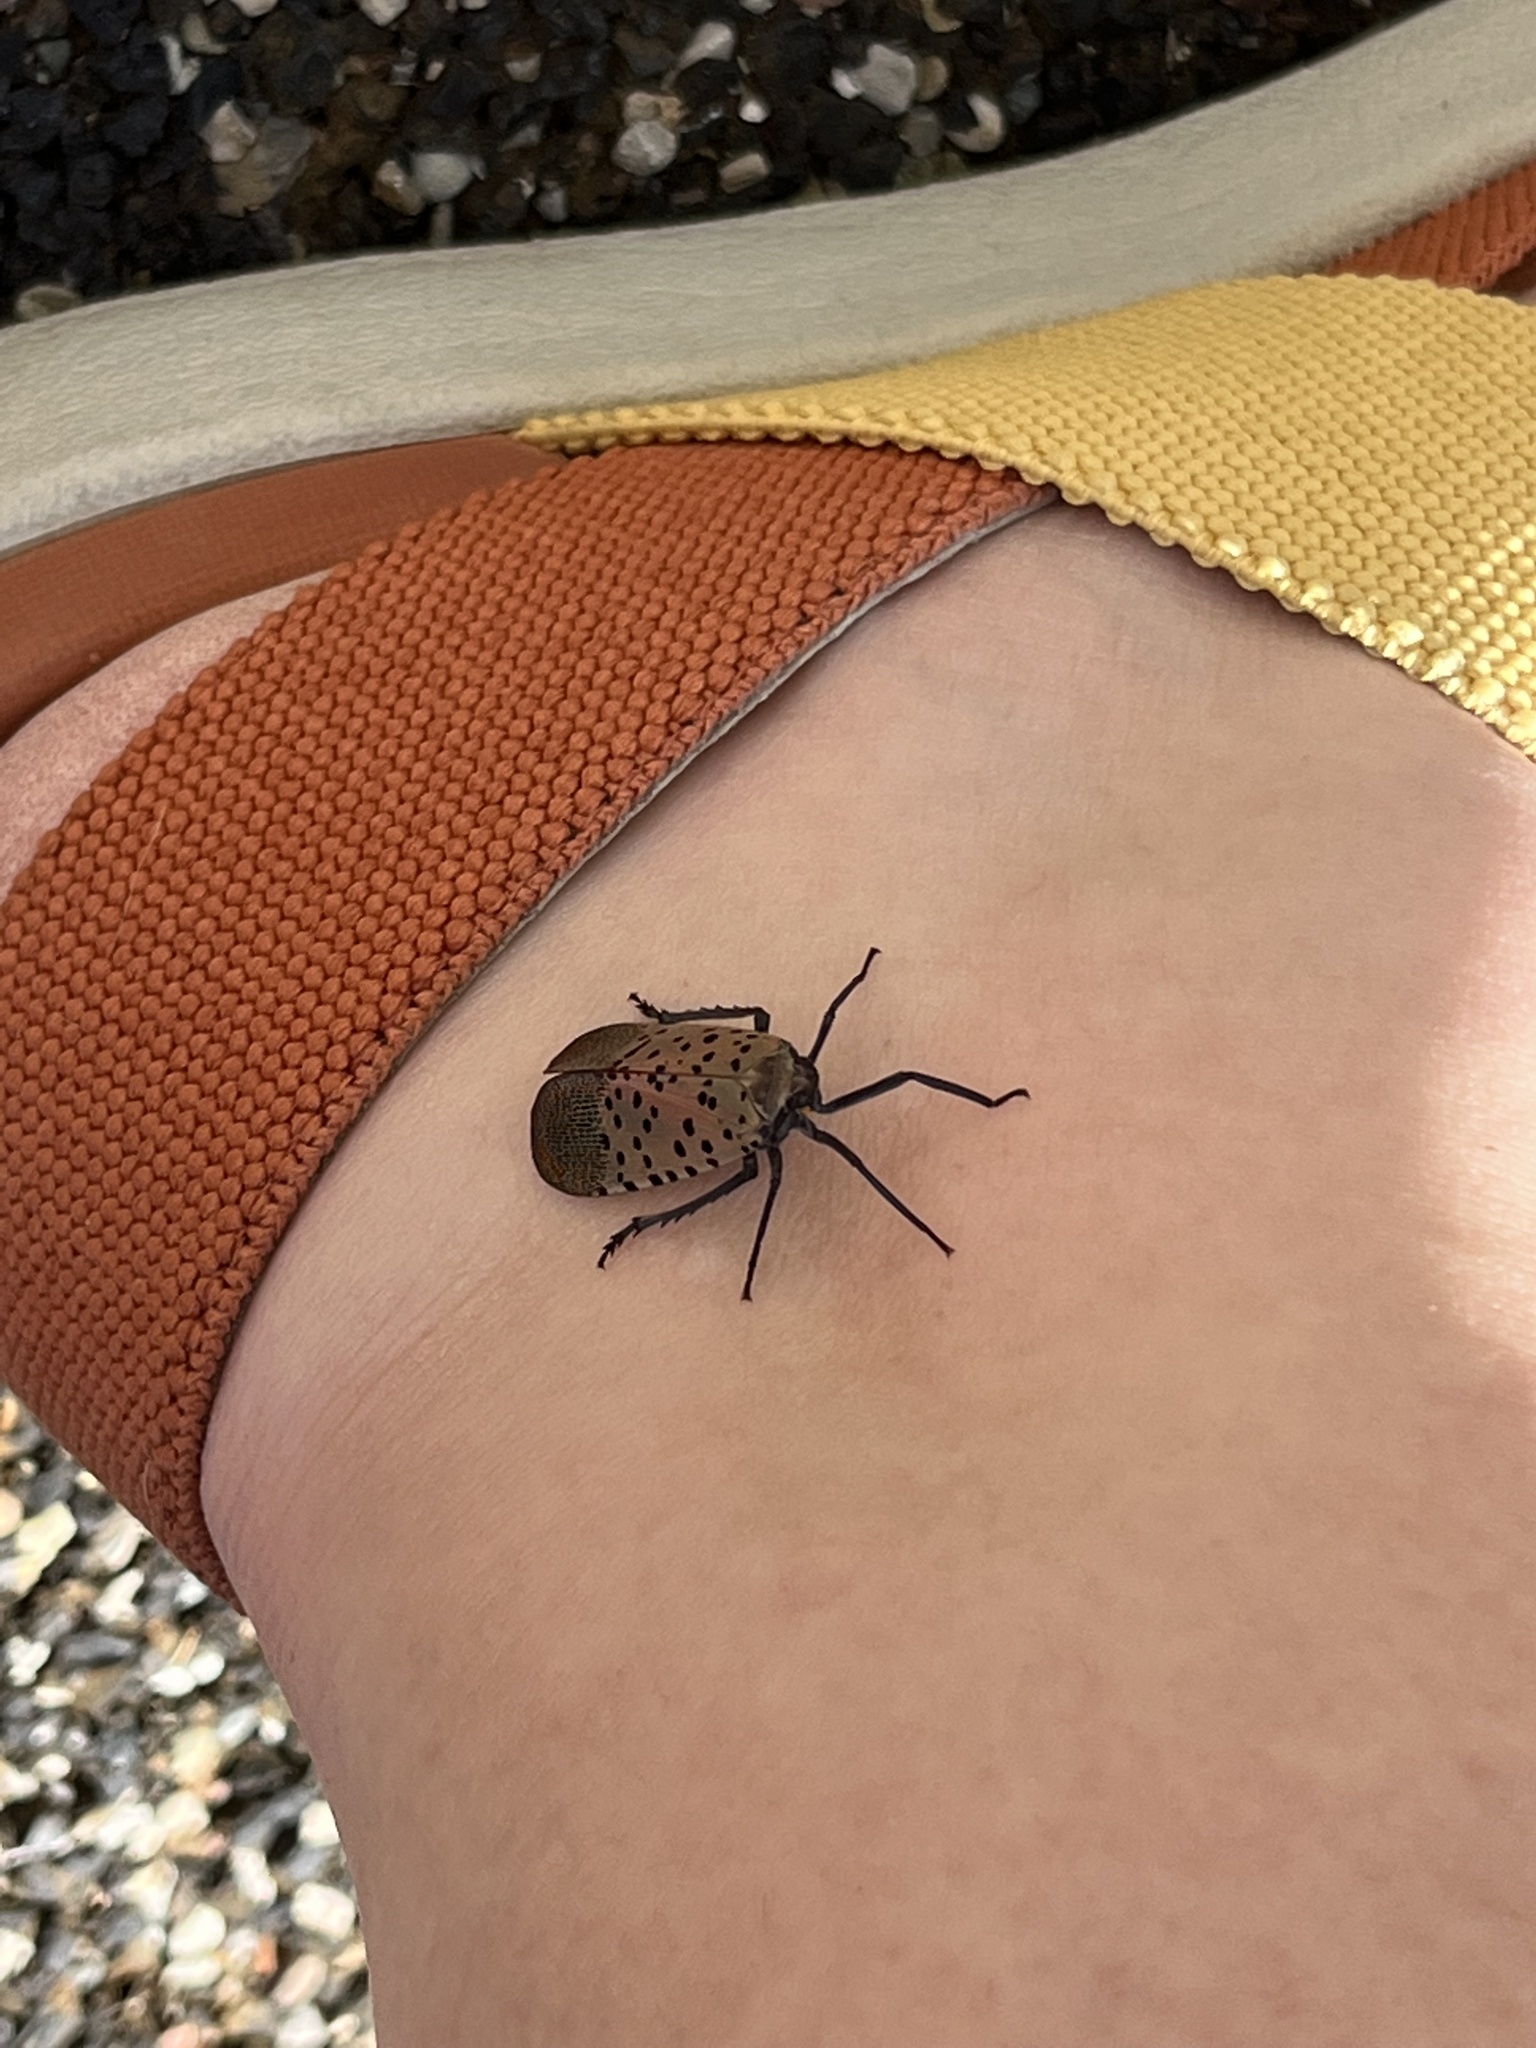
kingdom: Animalia
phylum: Arthropoda
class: Insecta
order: Hemiptera
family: Fulgoridae
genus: Lycorma
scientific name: Lycorma delicatula
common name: Spotted lanternfly
